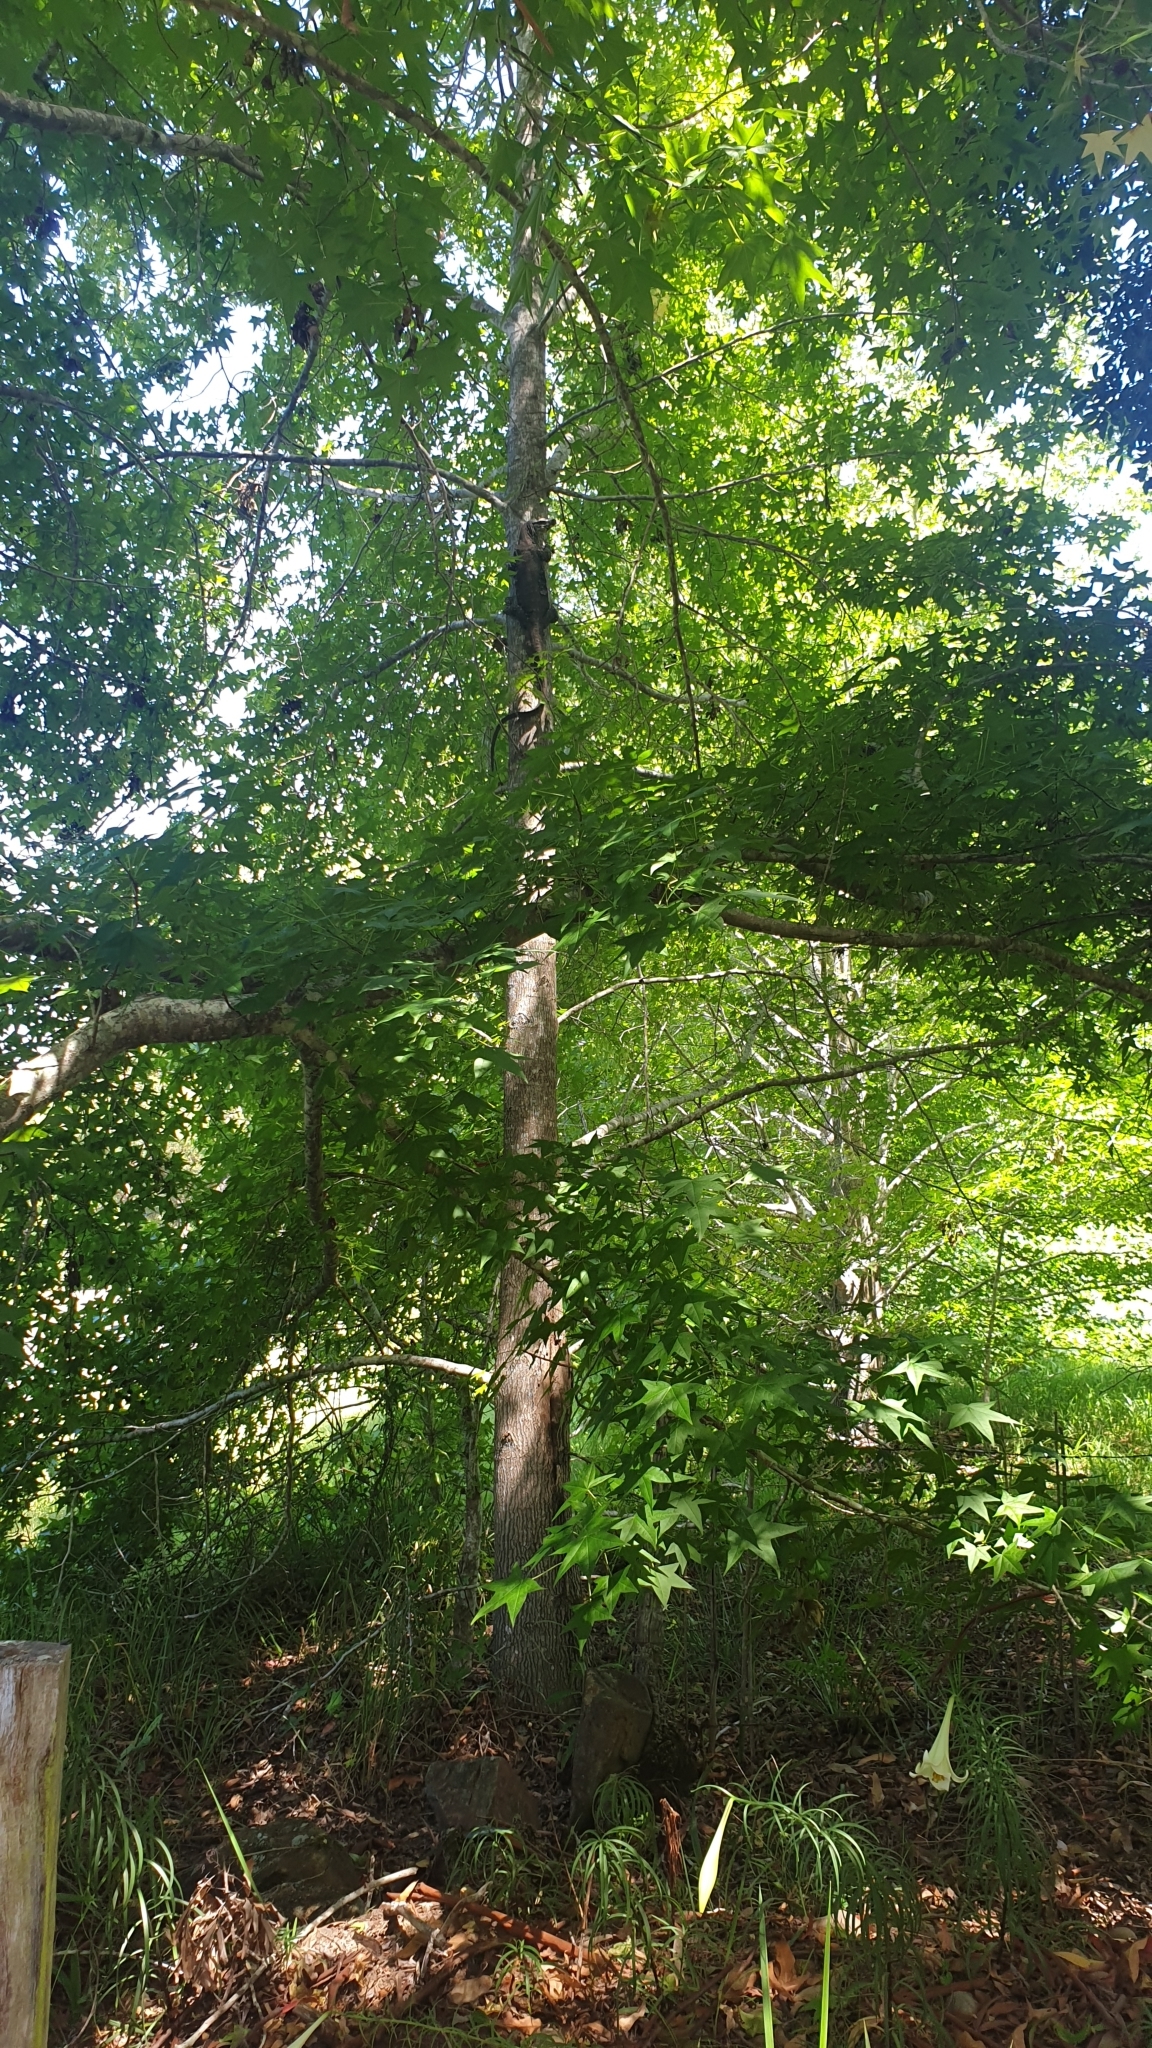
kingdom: Animalia
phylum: Chordata
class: Squamata
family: Varanidae
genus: Varanus
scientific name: Varanus varius
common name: Lace monitor
